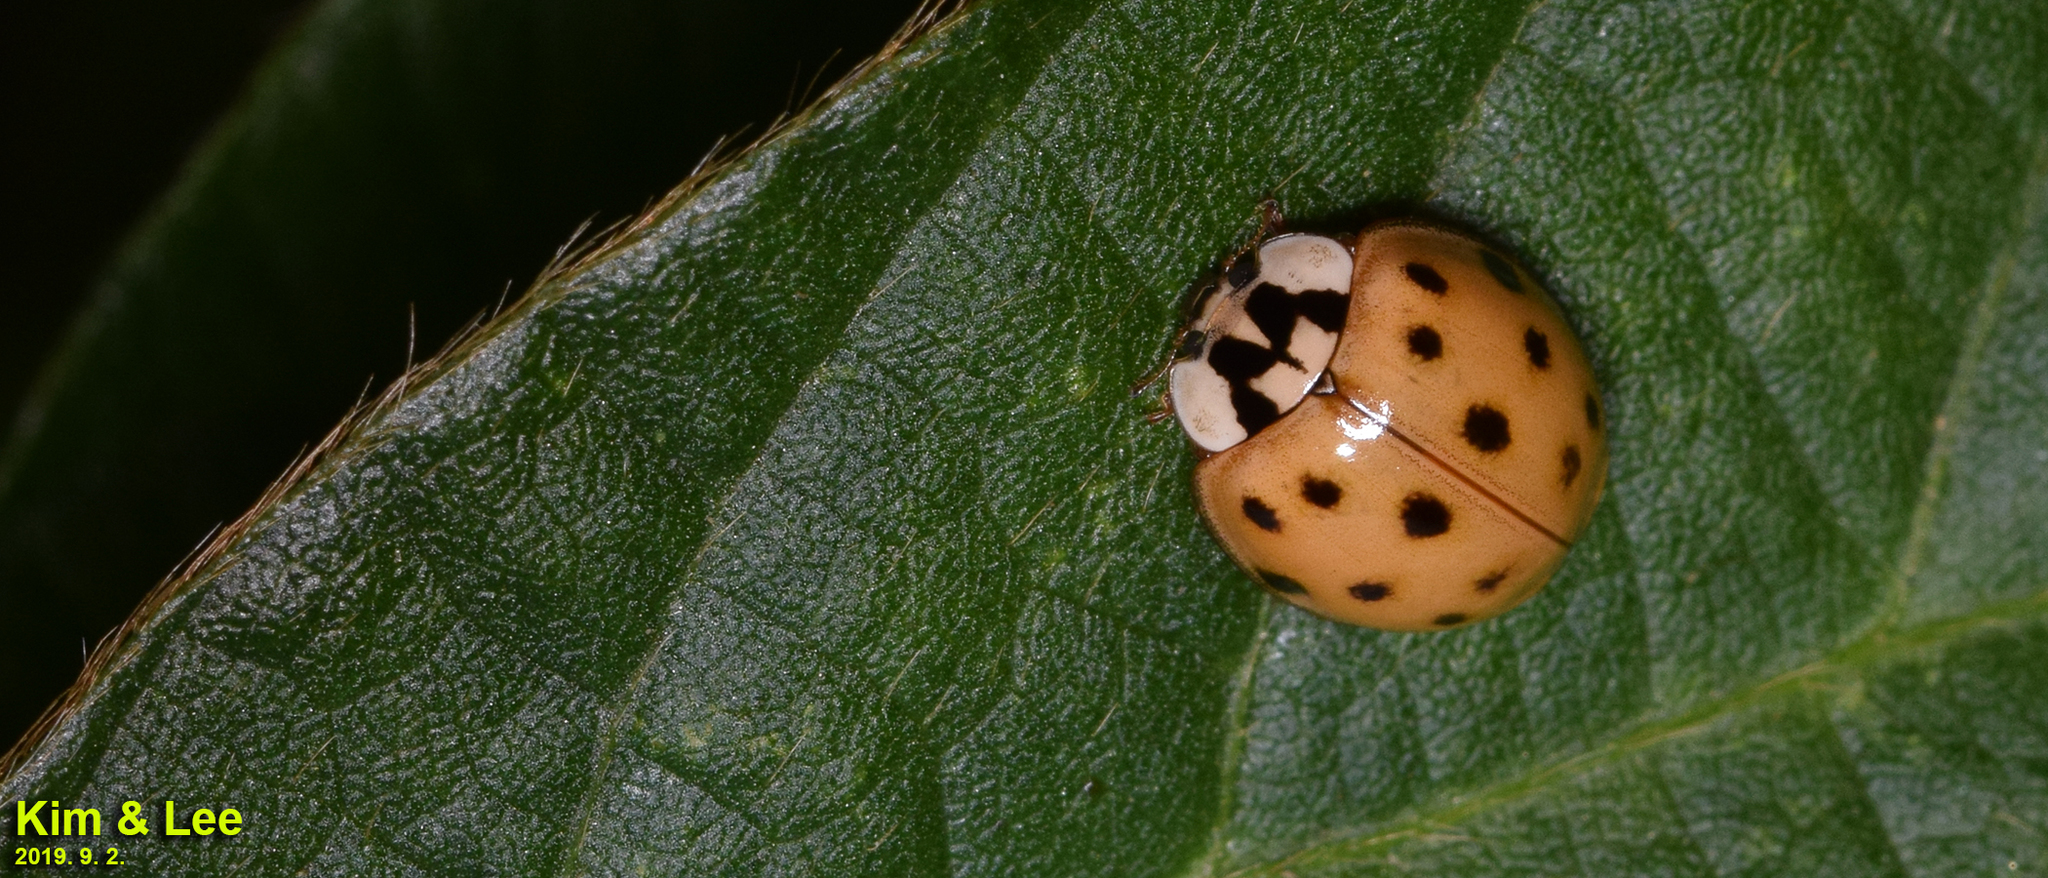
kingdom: Animalia
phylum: Arthropoda
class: Insecta
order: Coleoptera
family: Coccinellidae
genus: Harmonia
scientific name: Harmonia axyridis
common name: Harlequin ladybird
